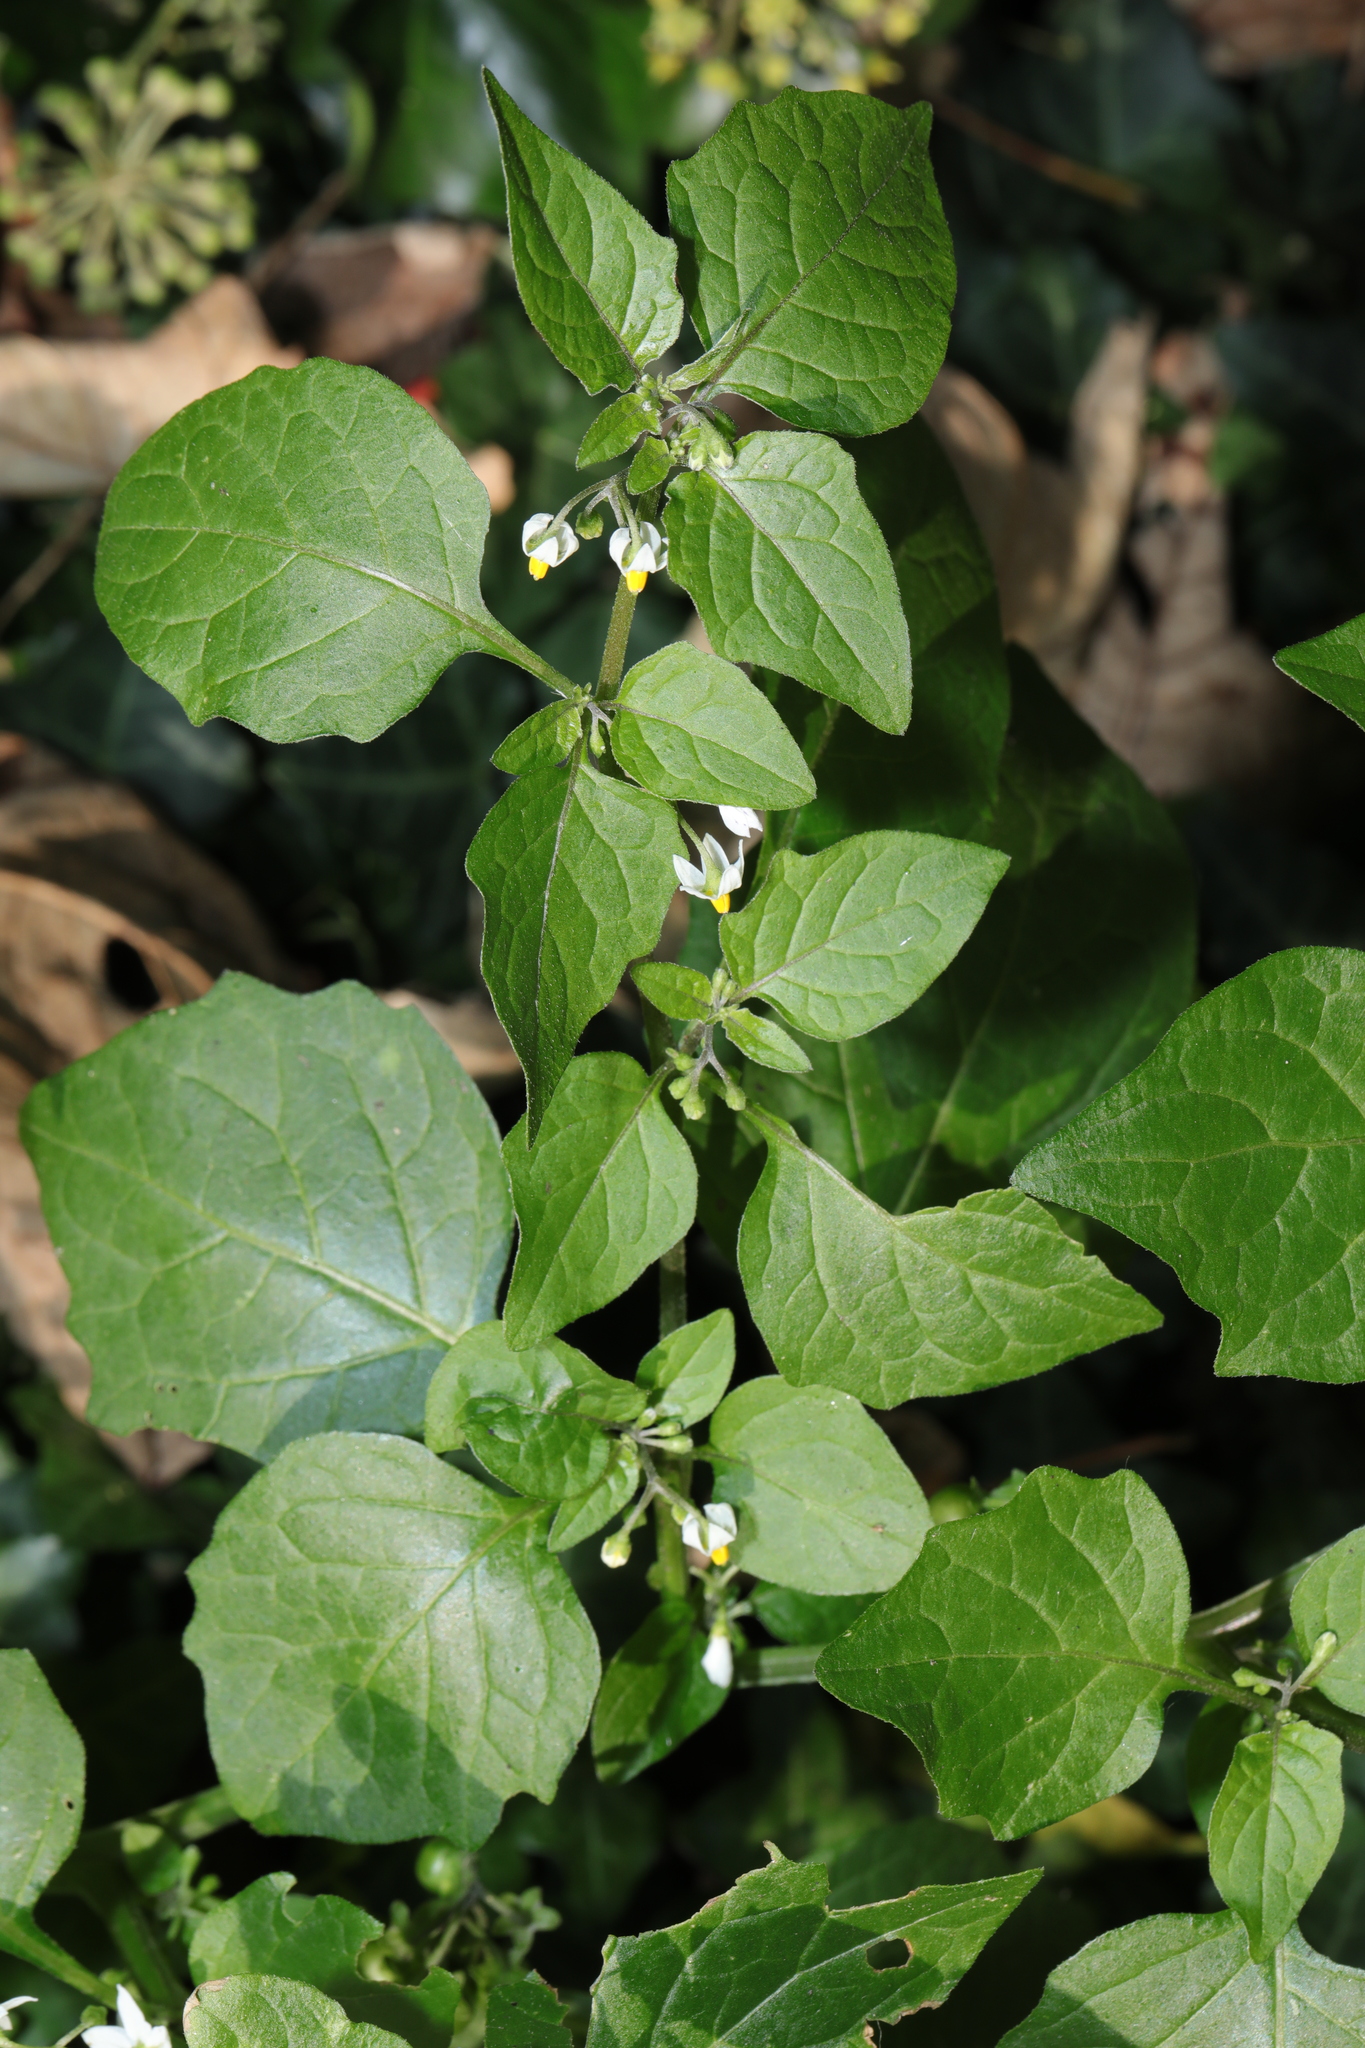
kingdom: Plantae
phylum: Tracheophyta
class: Magnoliopsida
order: Solanales
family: Solanaceae
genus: Solanum
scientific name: Solanum nigrum
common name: Black nightshade
